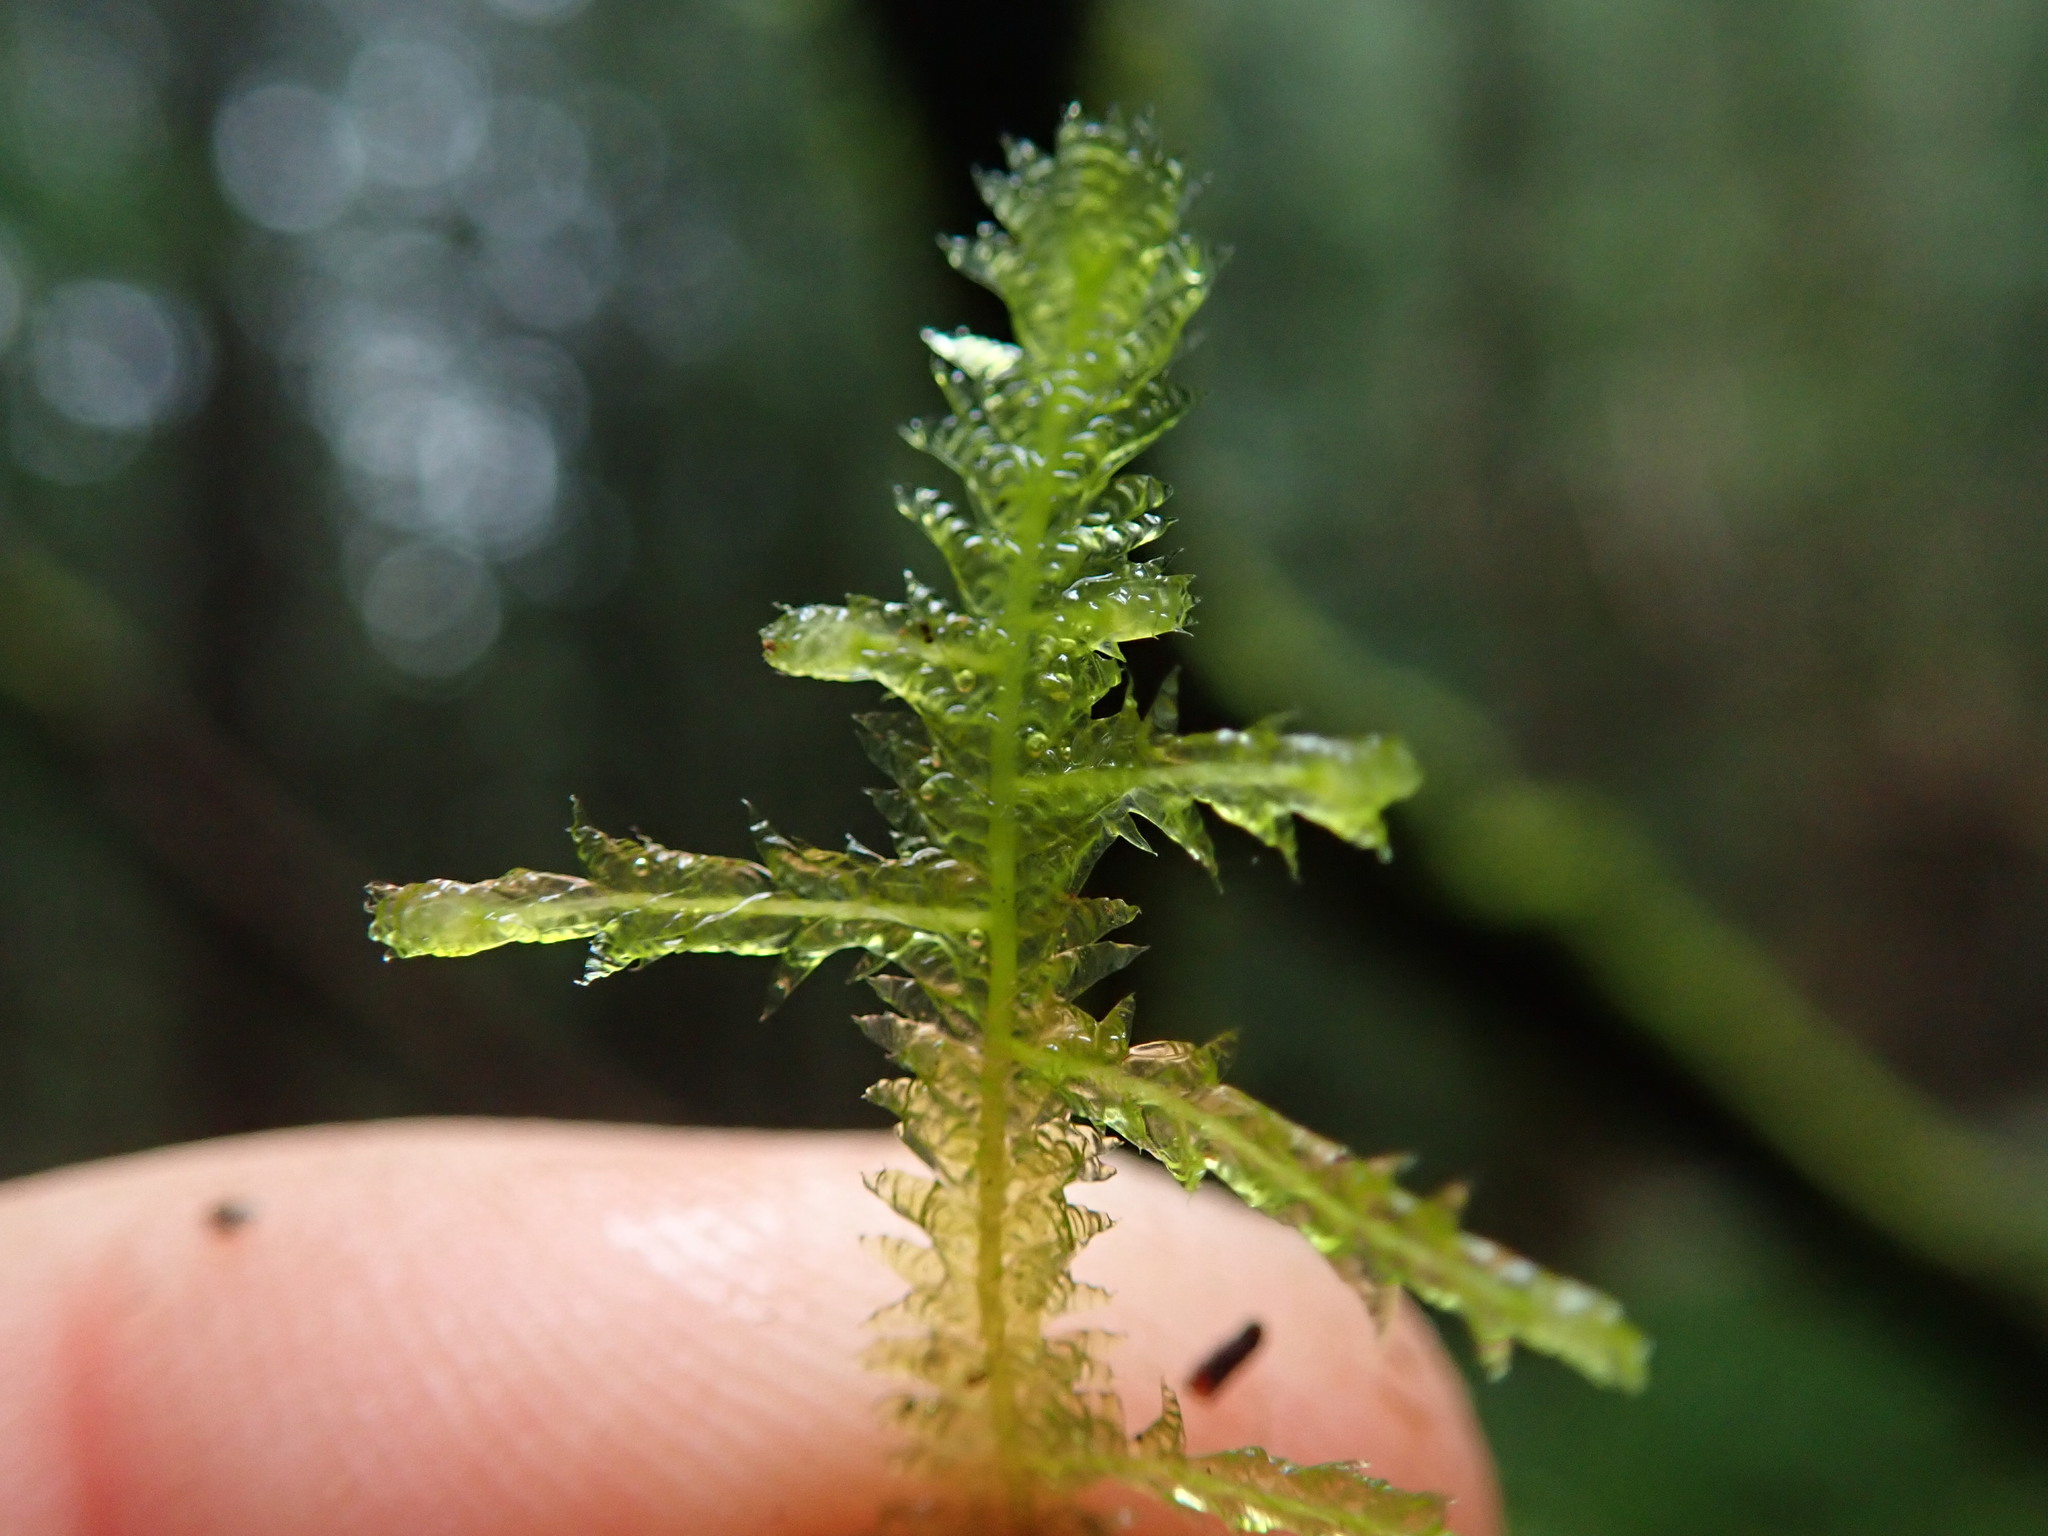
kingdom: Plantae
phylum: Bryophyta
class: Bryopsida
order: Hypnales
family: Neckeraceae
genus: Neckera
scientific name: Neckera douglasii
